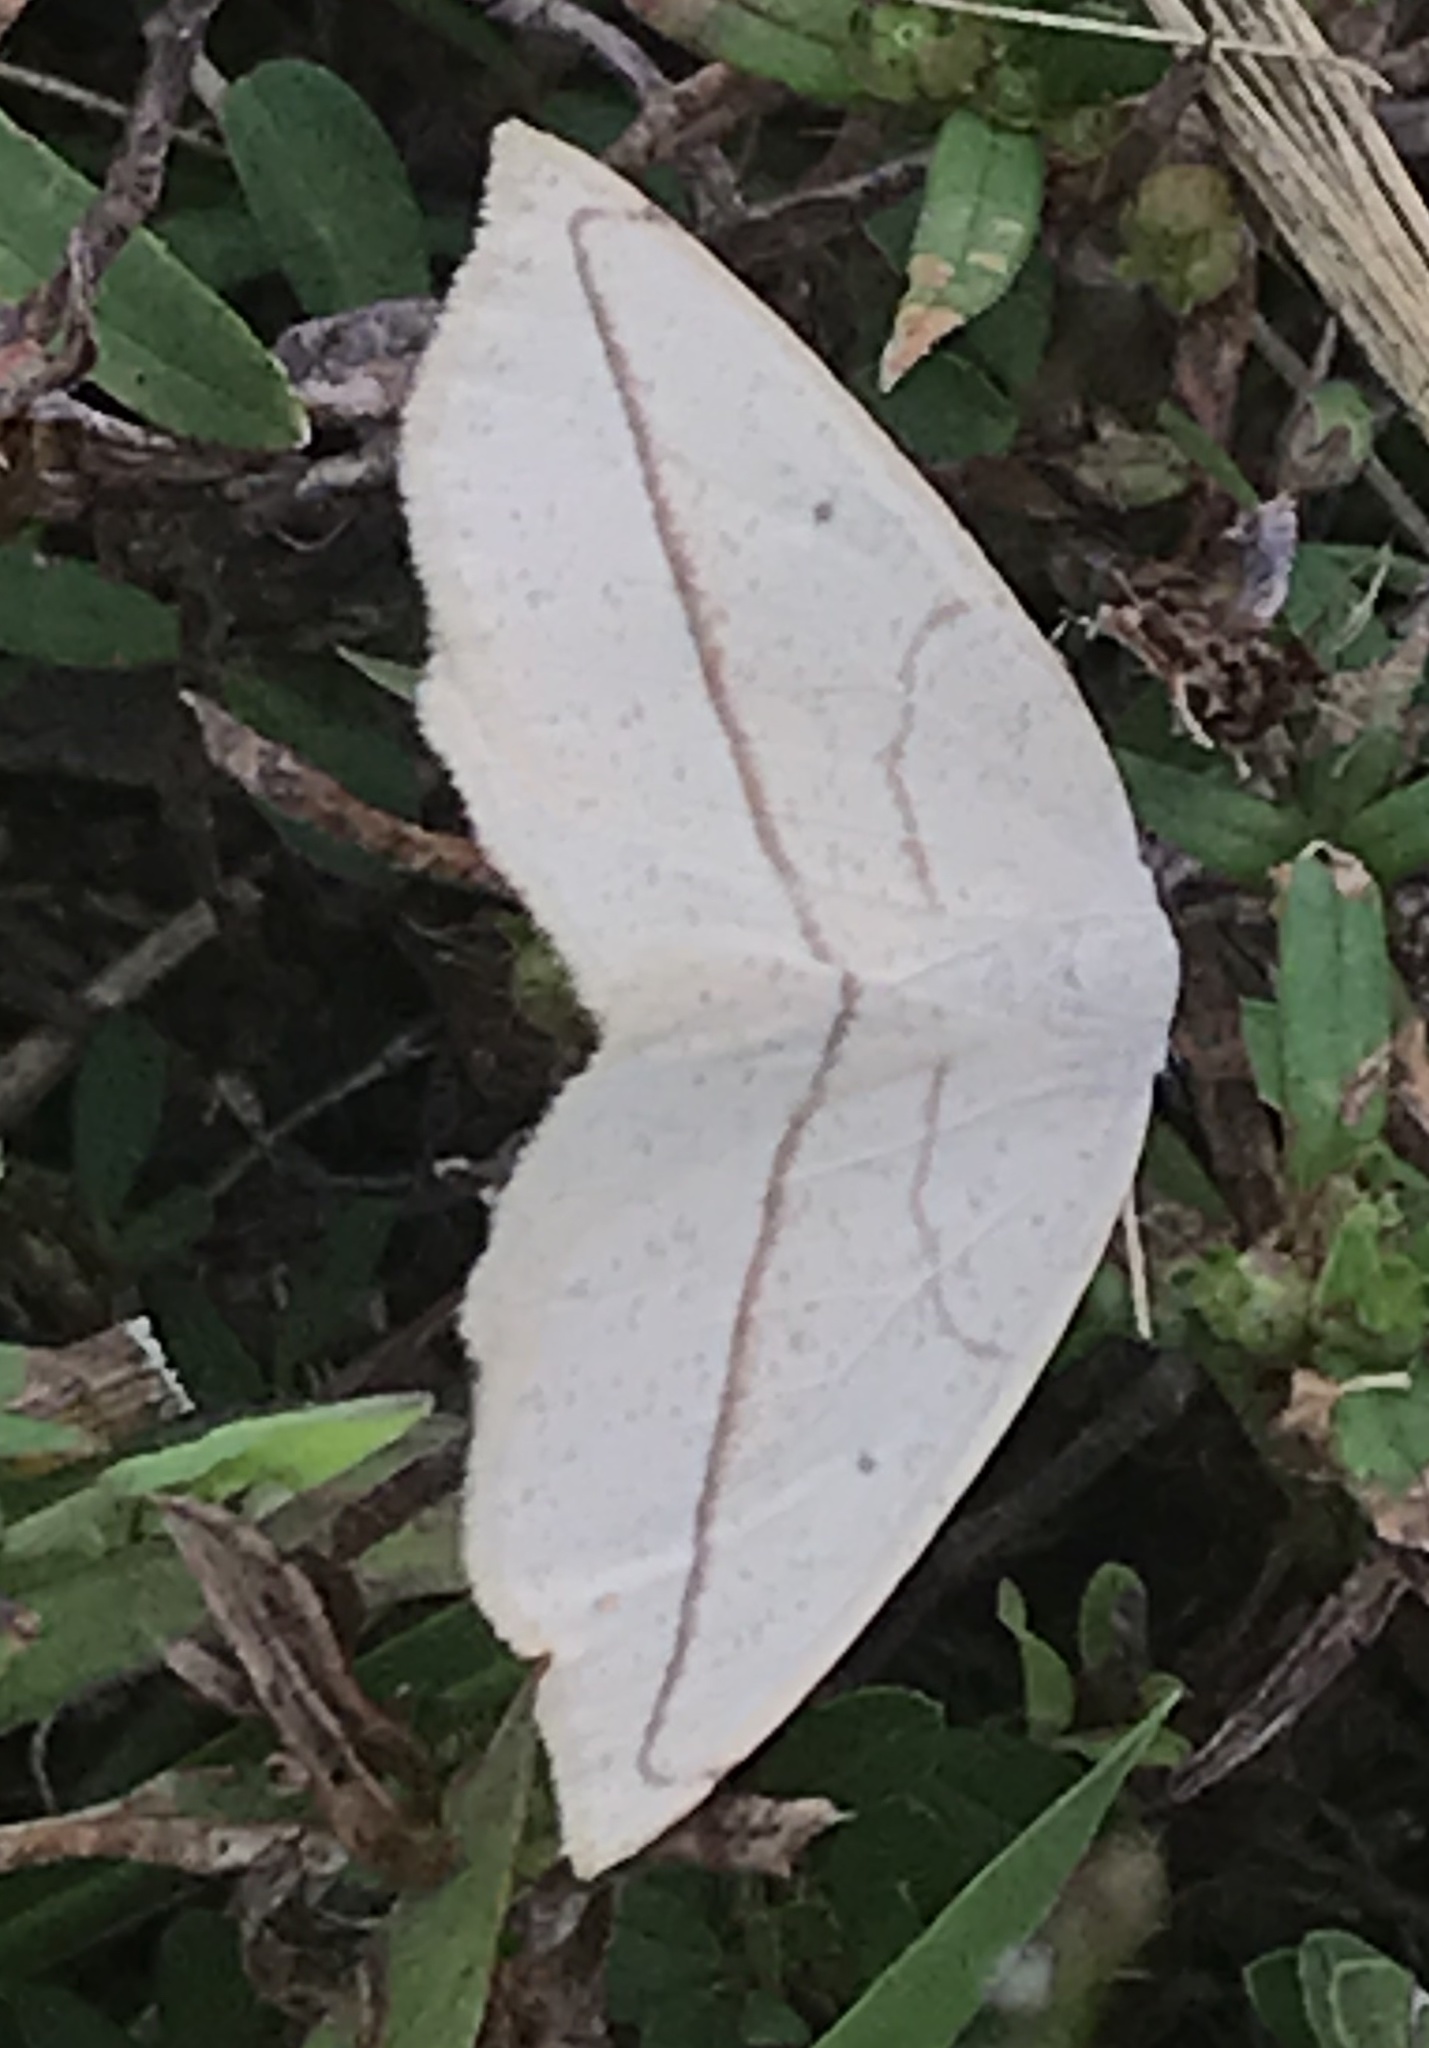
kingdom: Animalia
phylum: Arthropoda
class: Insecta
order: Lepidoptera
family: Geometridae
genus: Eusarca
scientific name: Eusarca confusaria
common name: Confused eusarca
